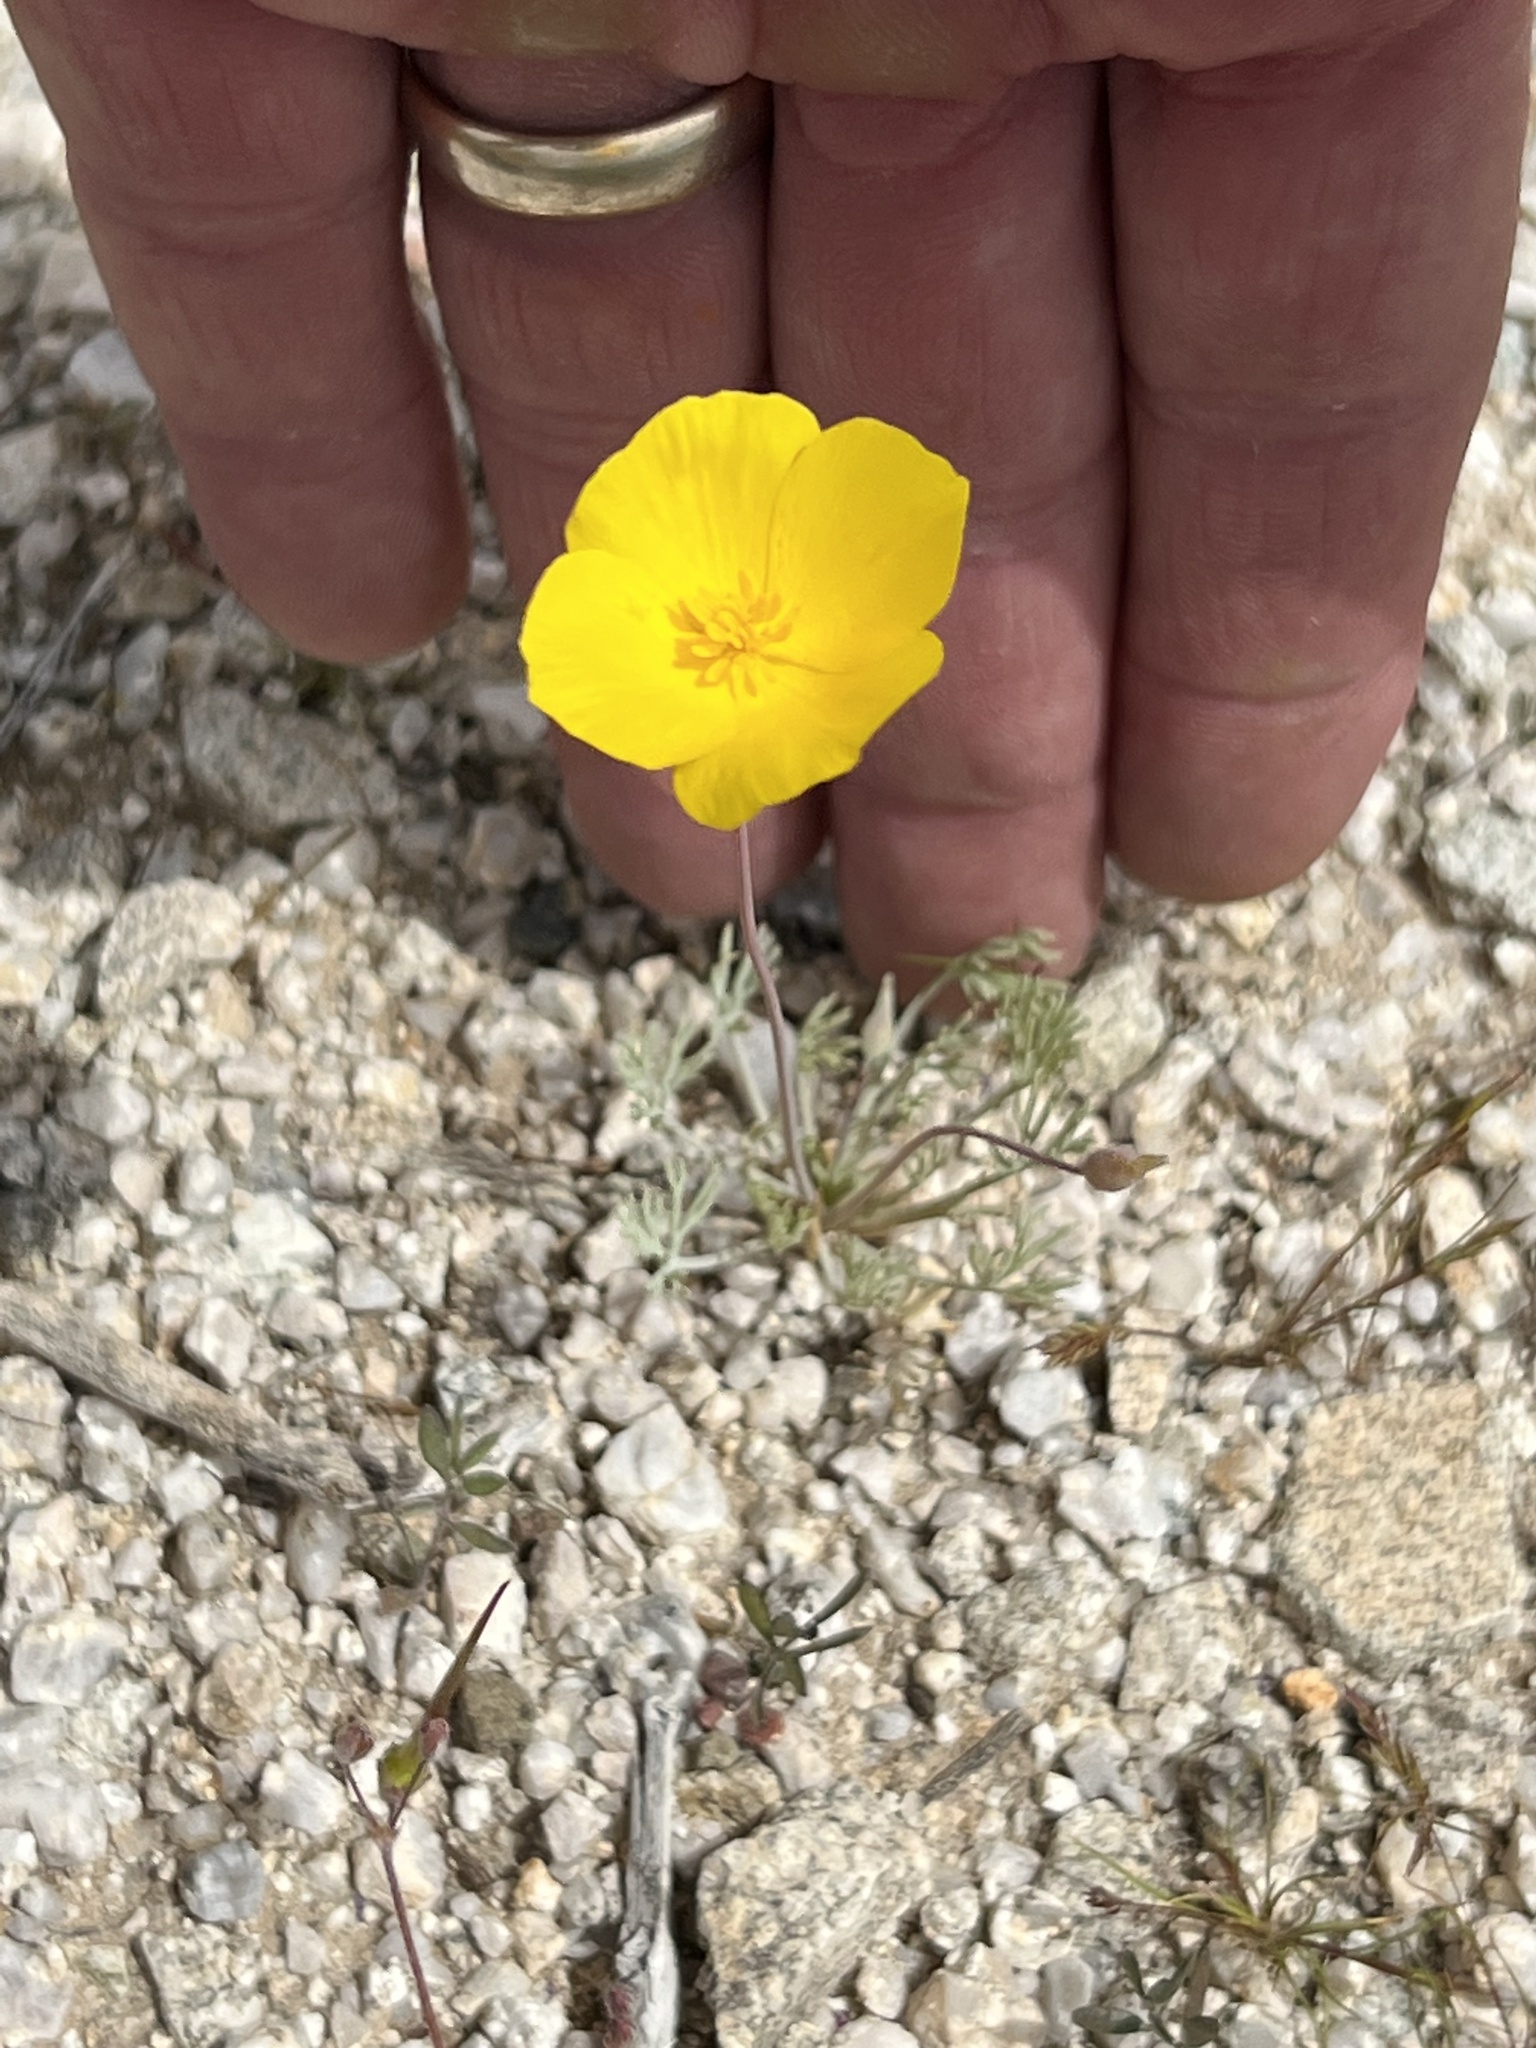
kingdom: Plantae
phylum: Tracheophyta
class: Magnoliopsida
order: Ranunculales
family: Papaveraceae
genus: Eschscholzia
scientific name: Eschscholzia glyptosperma
